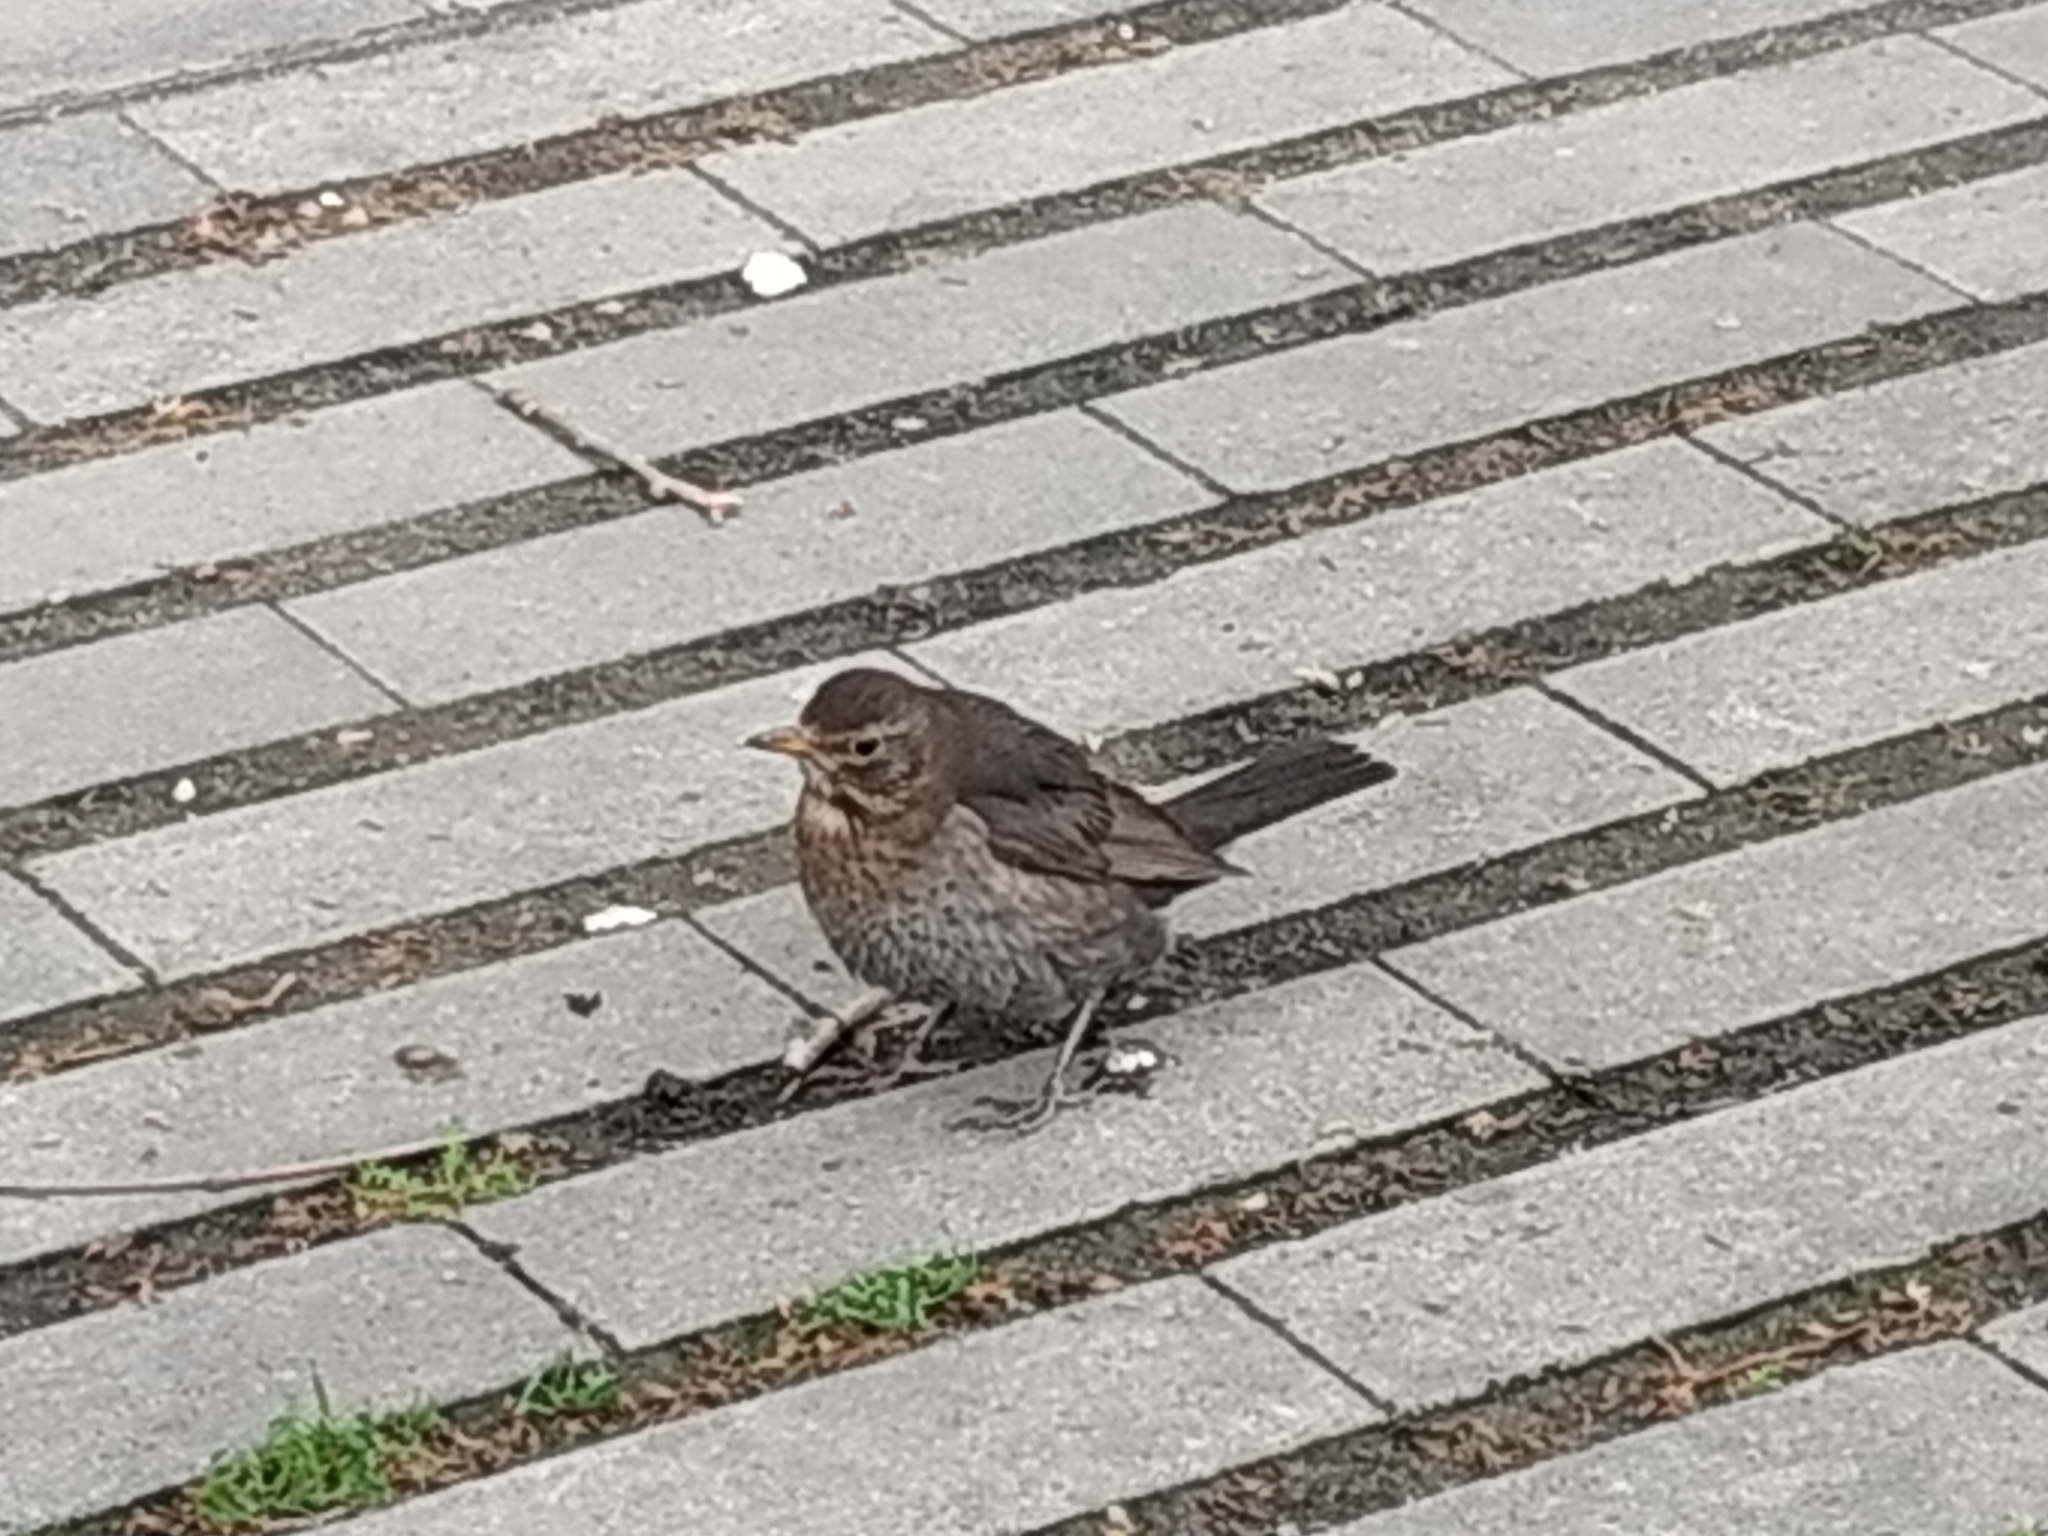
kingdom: Animalia
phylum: Chordata
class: Aves
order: Passeriformes
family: Turdidae
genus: Turdus
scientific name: Turdus merula
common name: Common blackbird
